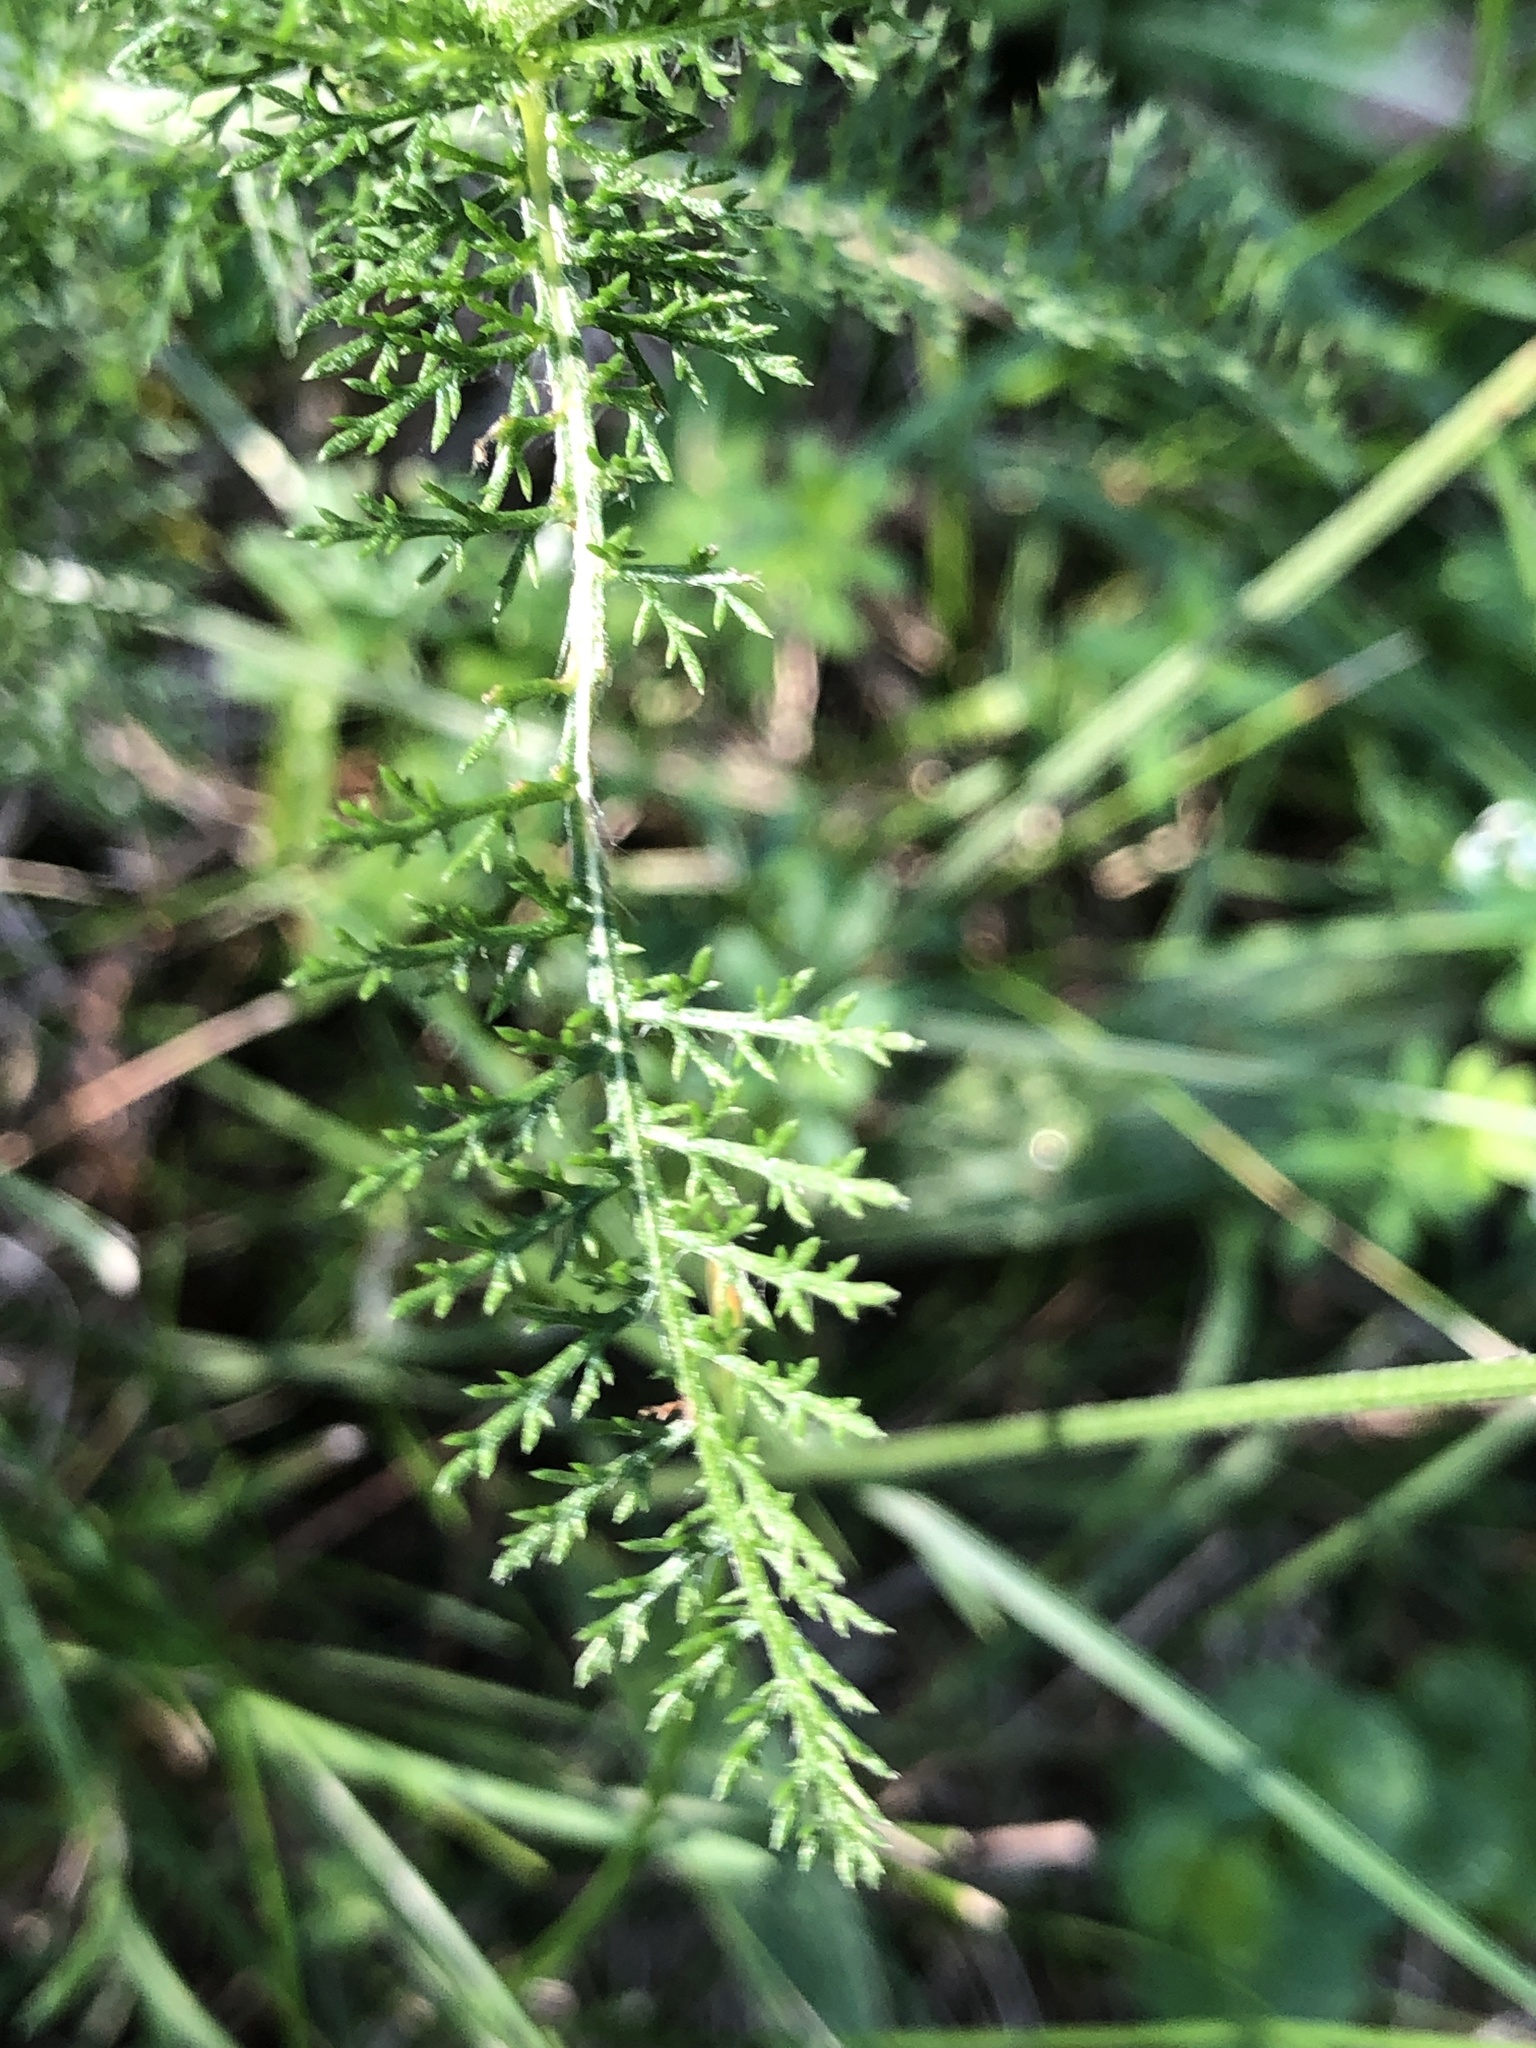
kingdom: Plantae
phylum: Tracheophyta
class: Magnoliopsida
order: Asterales
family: Asteraceae
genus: Achillea
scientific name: Achillea millefolium
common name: Yarrow
